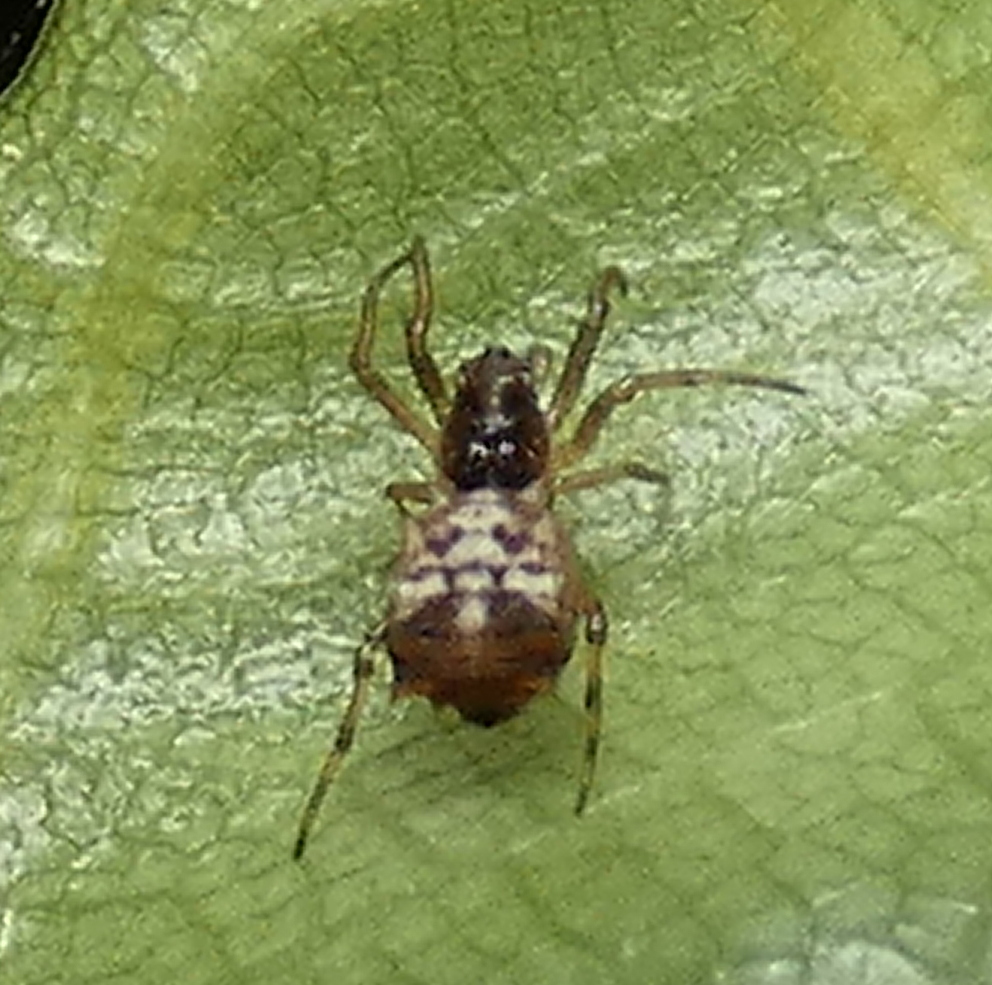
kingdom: Animalia
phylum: Arthropoda
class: Arachnida
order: Araneae
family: Araneidae
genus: Micrathena
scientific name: Micrathena picta
